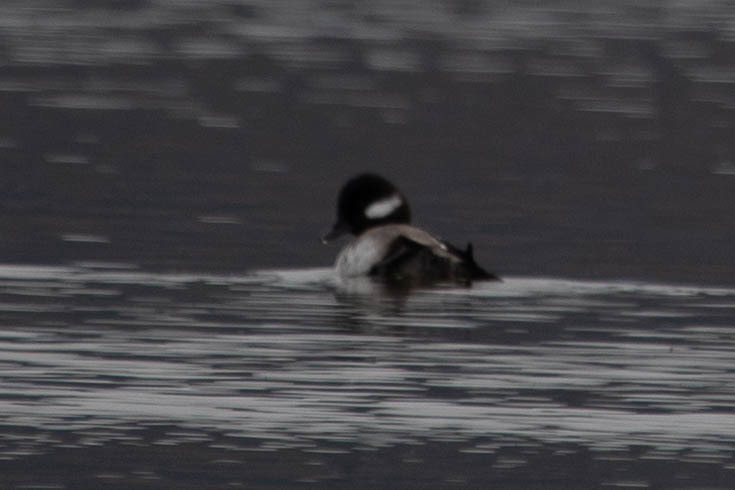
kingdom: Animalia
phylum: Chordata
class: Aves
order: Anseriformes
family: Anatidae
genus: Bucephala
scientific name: Bucephala albeola
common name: Bufflehead
